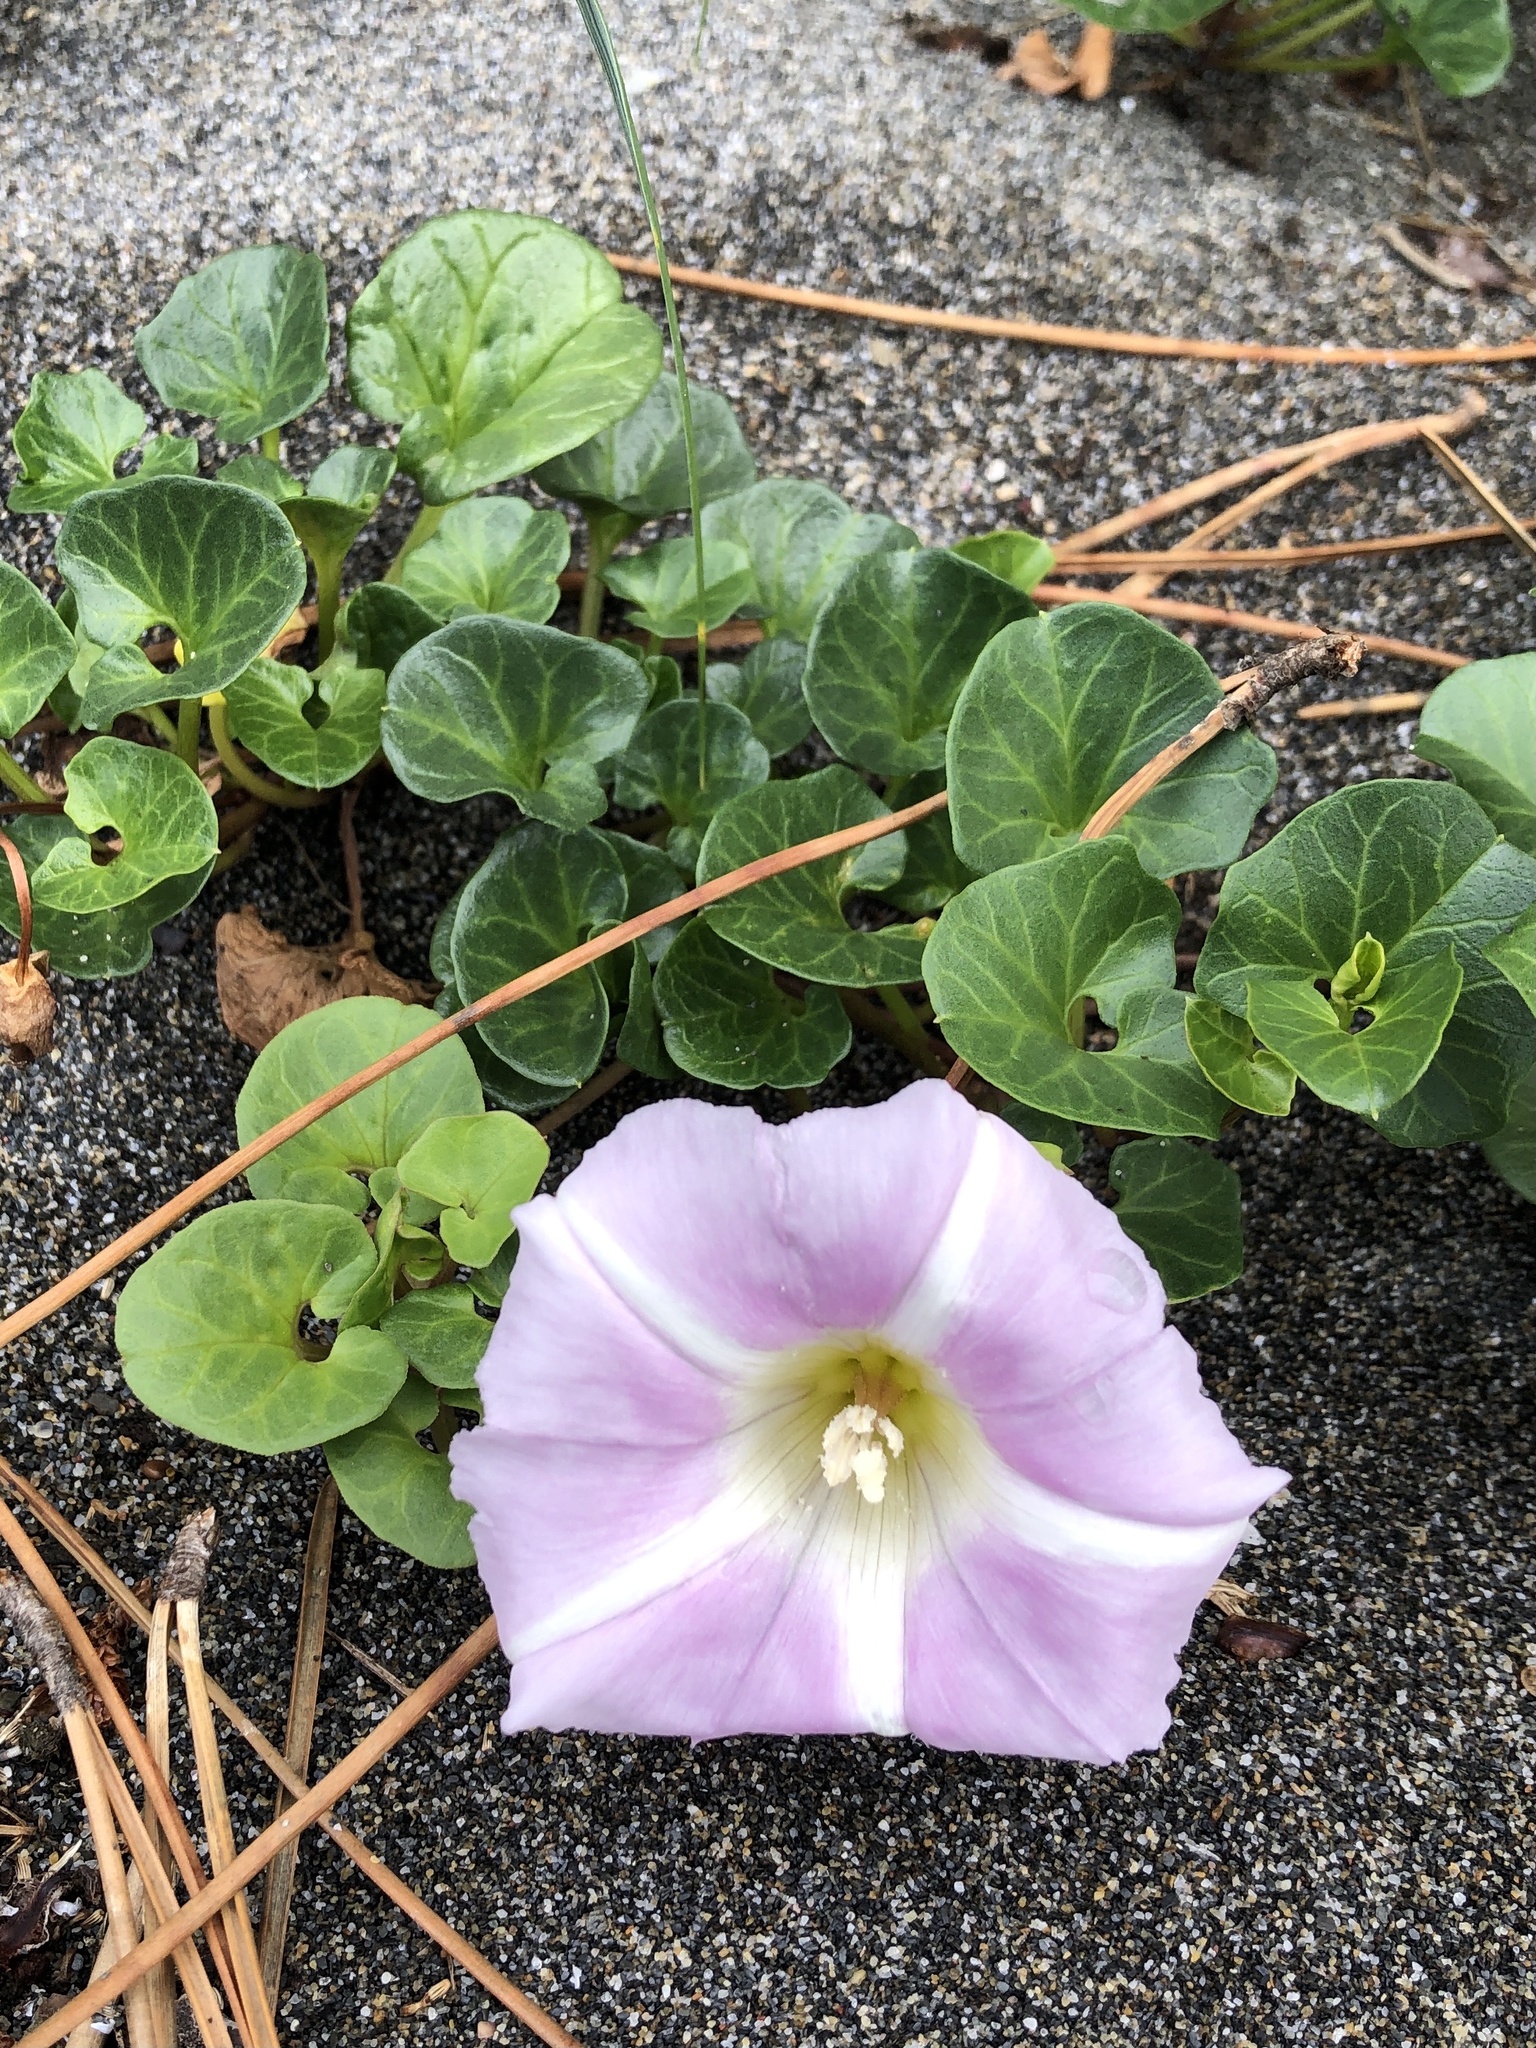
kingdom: Plantae
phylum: Tracheophyta
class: Magnoliopsida
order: Solanales
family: Convolvulaceae
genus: Calystegia
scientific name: Calystegia soldanella
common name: Sea bindweed
